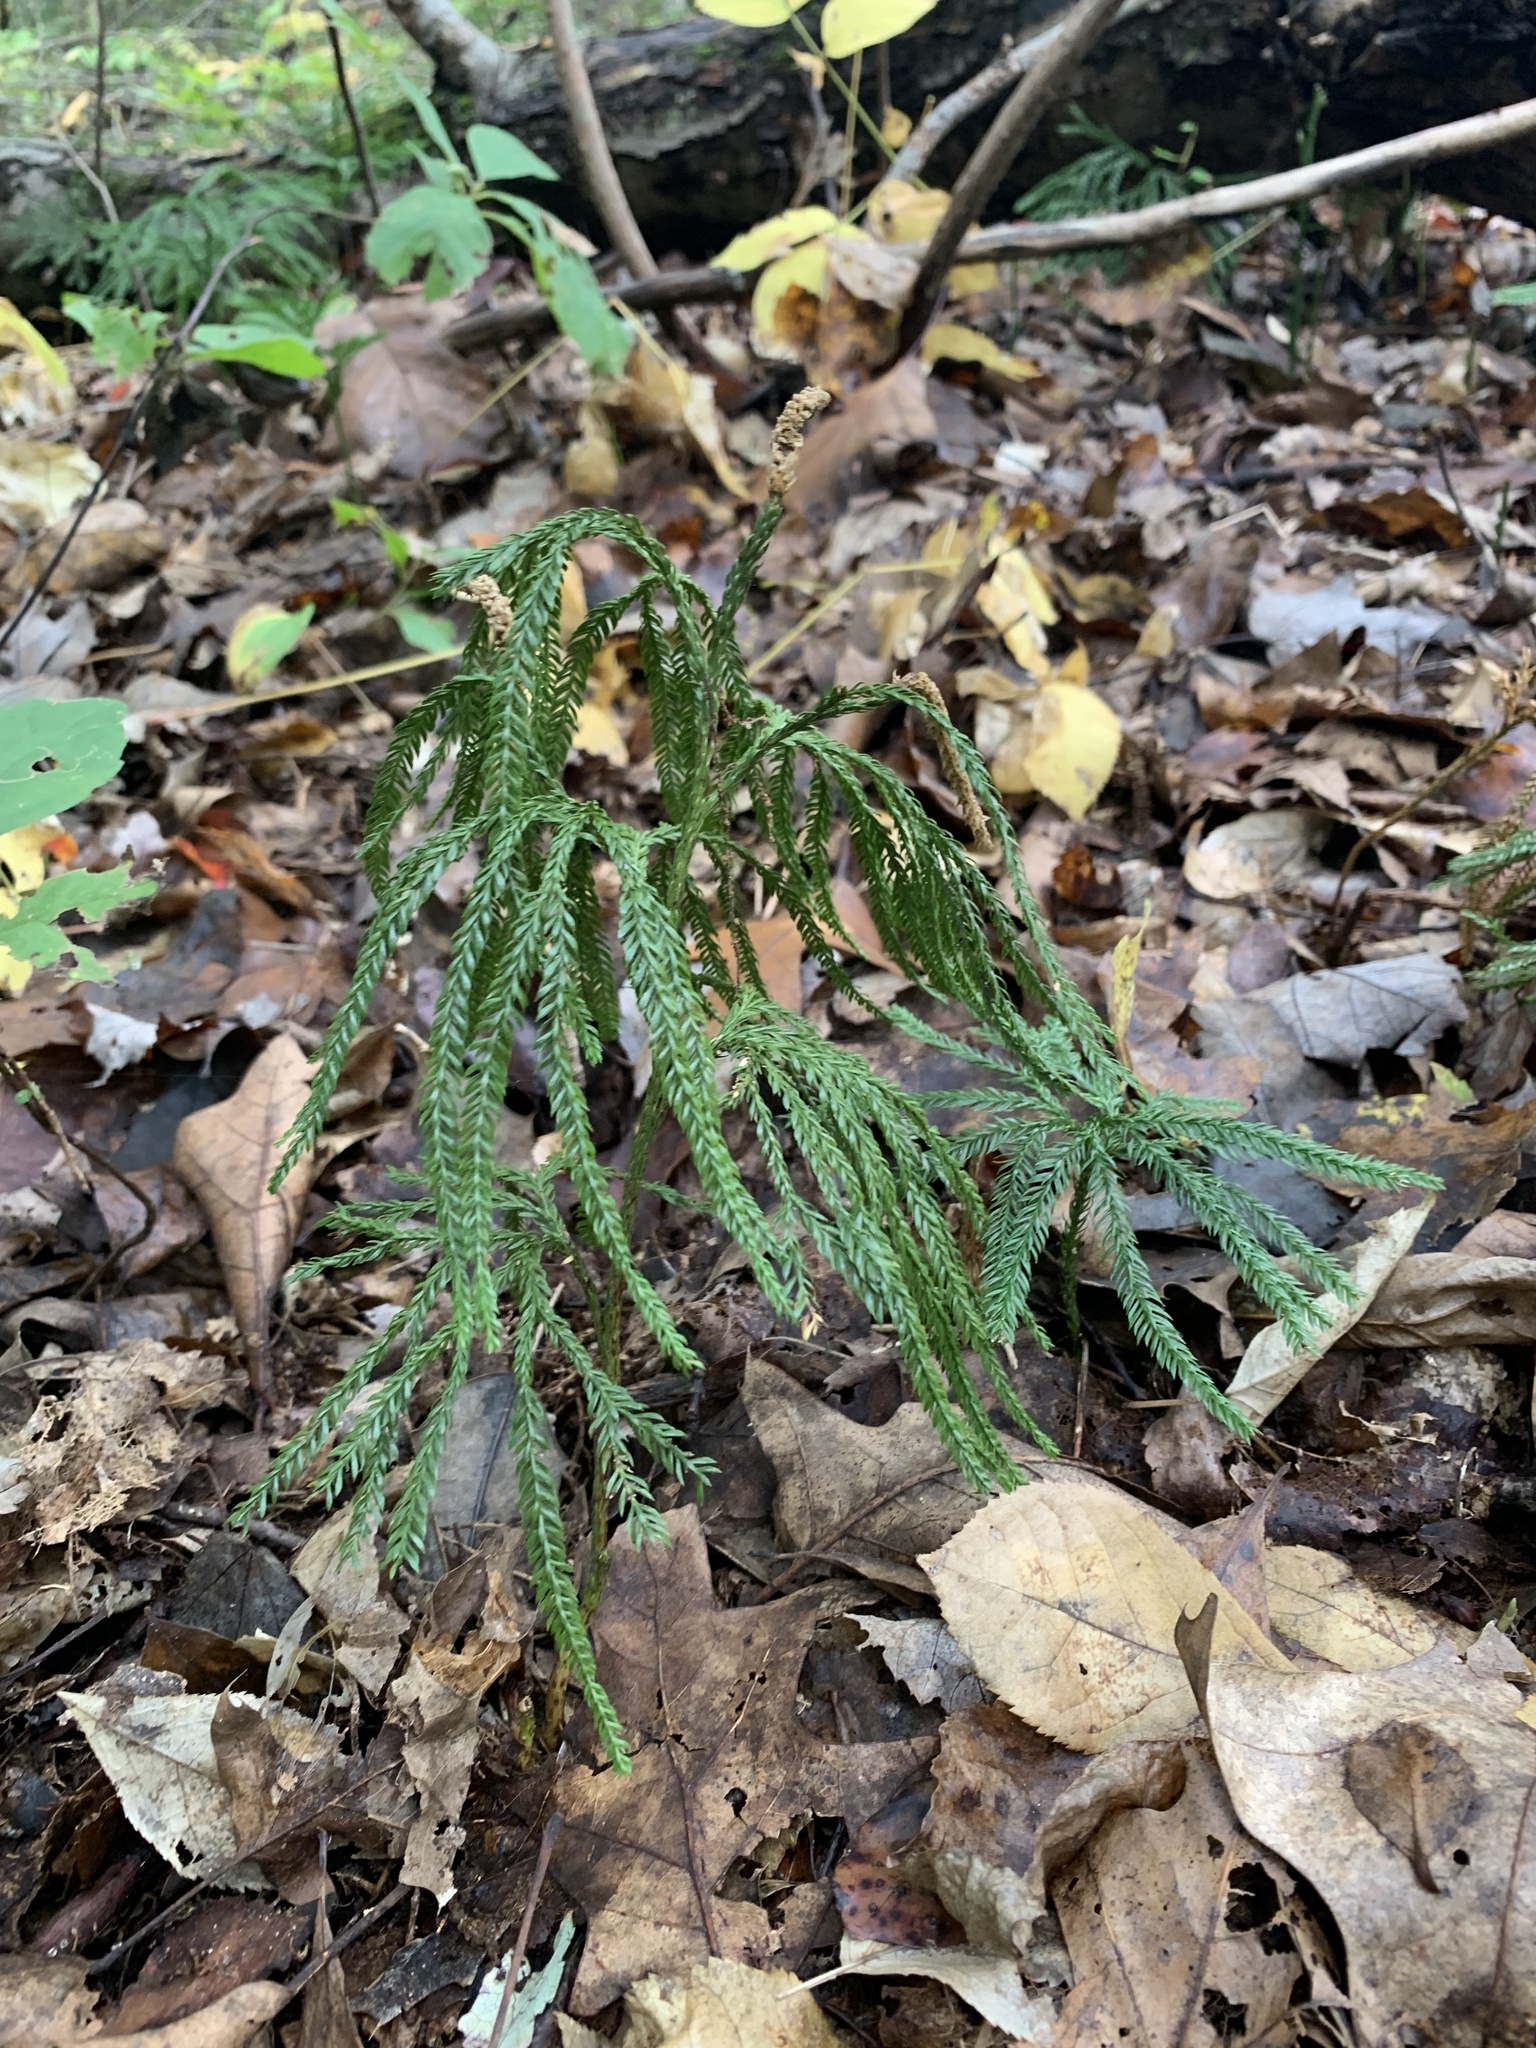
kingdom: Plantae
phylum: Tracheophyta
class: Lycopodiopsida
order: Lycopodiales
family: Lycopodiaceae
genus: Dendrolycopodium
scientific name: Dendrolycopodium obscurum
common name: Common ground-pine
